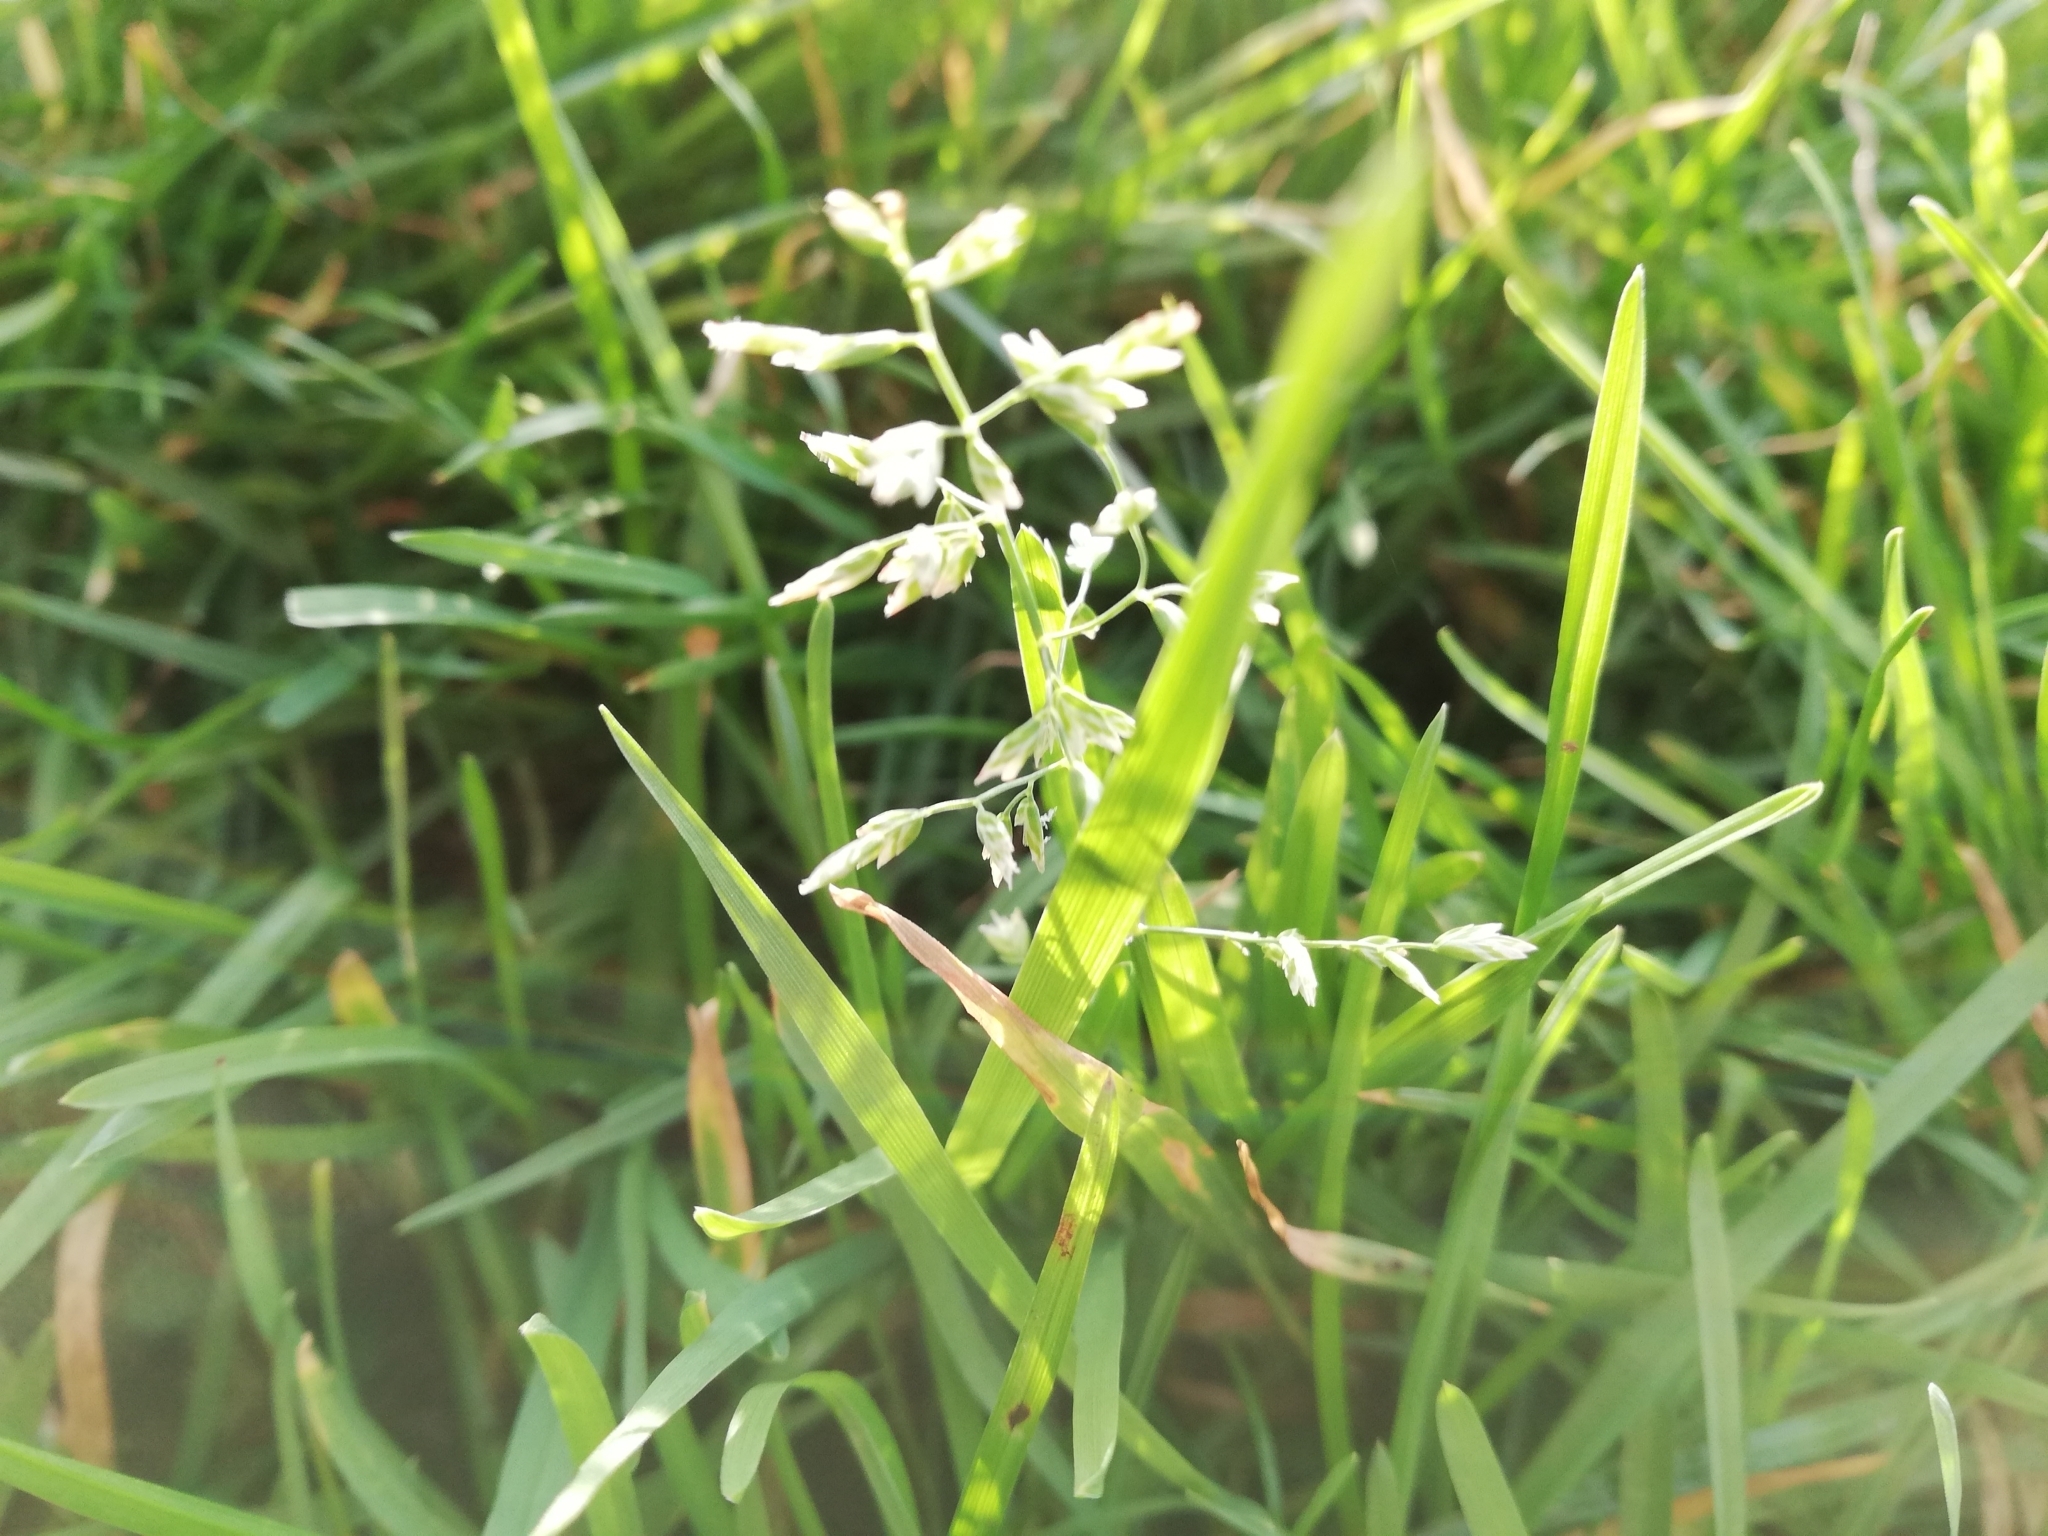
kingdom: Plantae
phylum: Tracheophyta
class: Liliopsida
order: Poales
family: Poaceae
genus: Poa
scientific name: Poa annua
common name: Annual bluegrass
